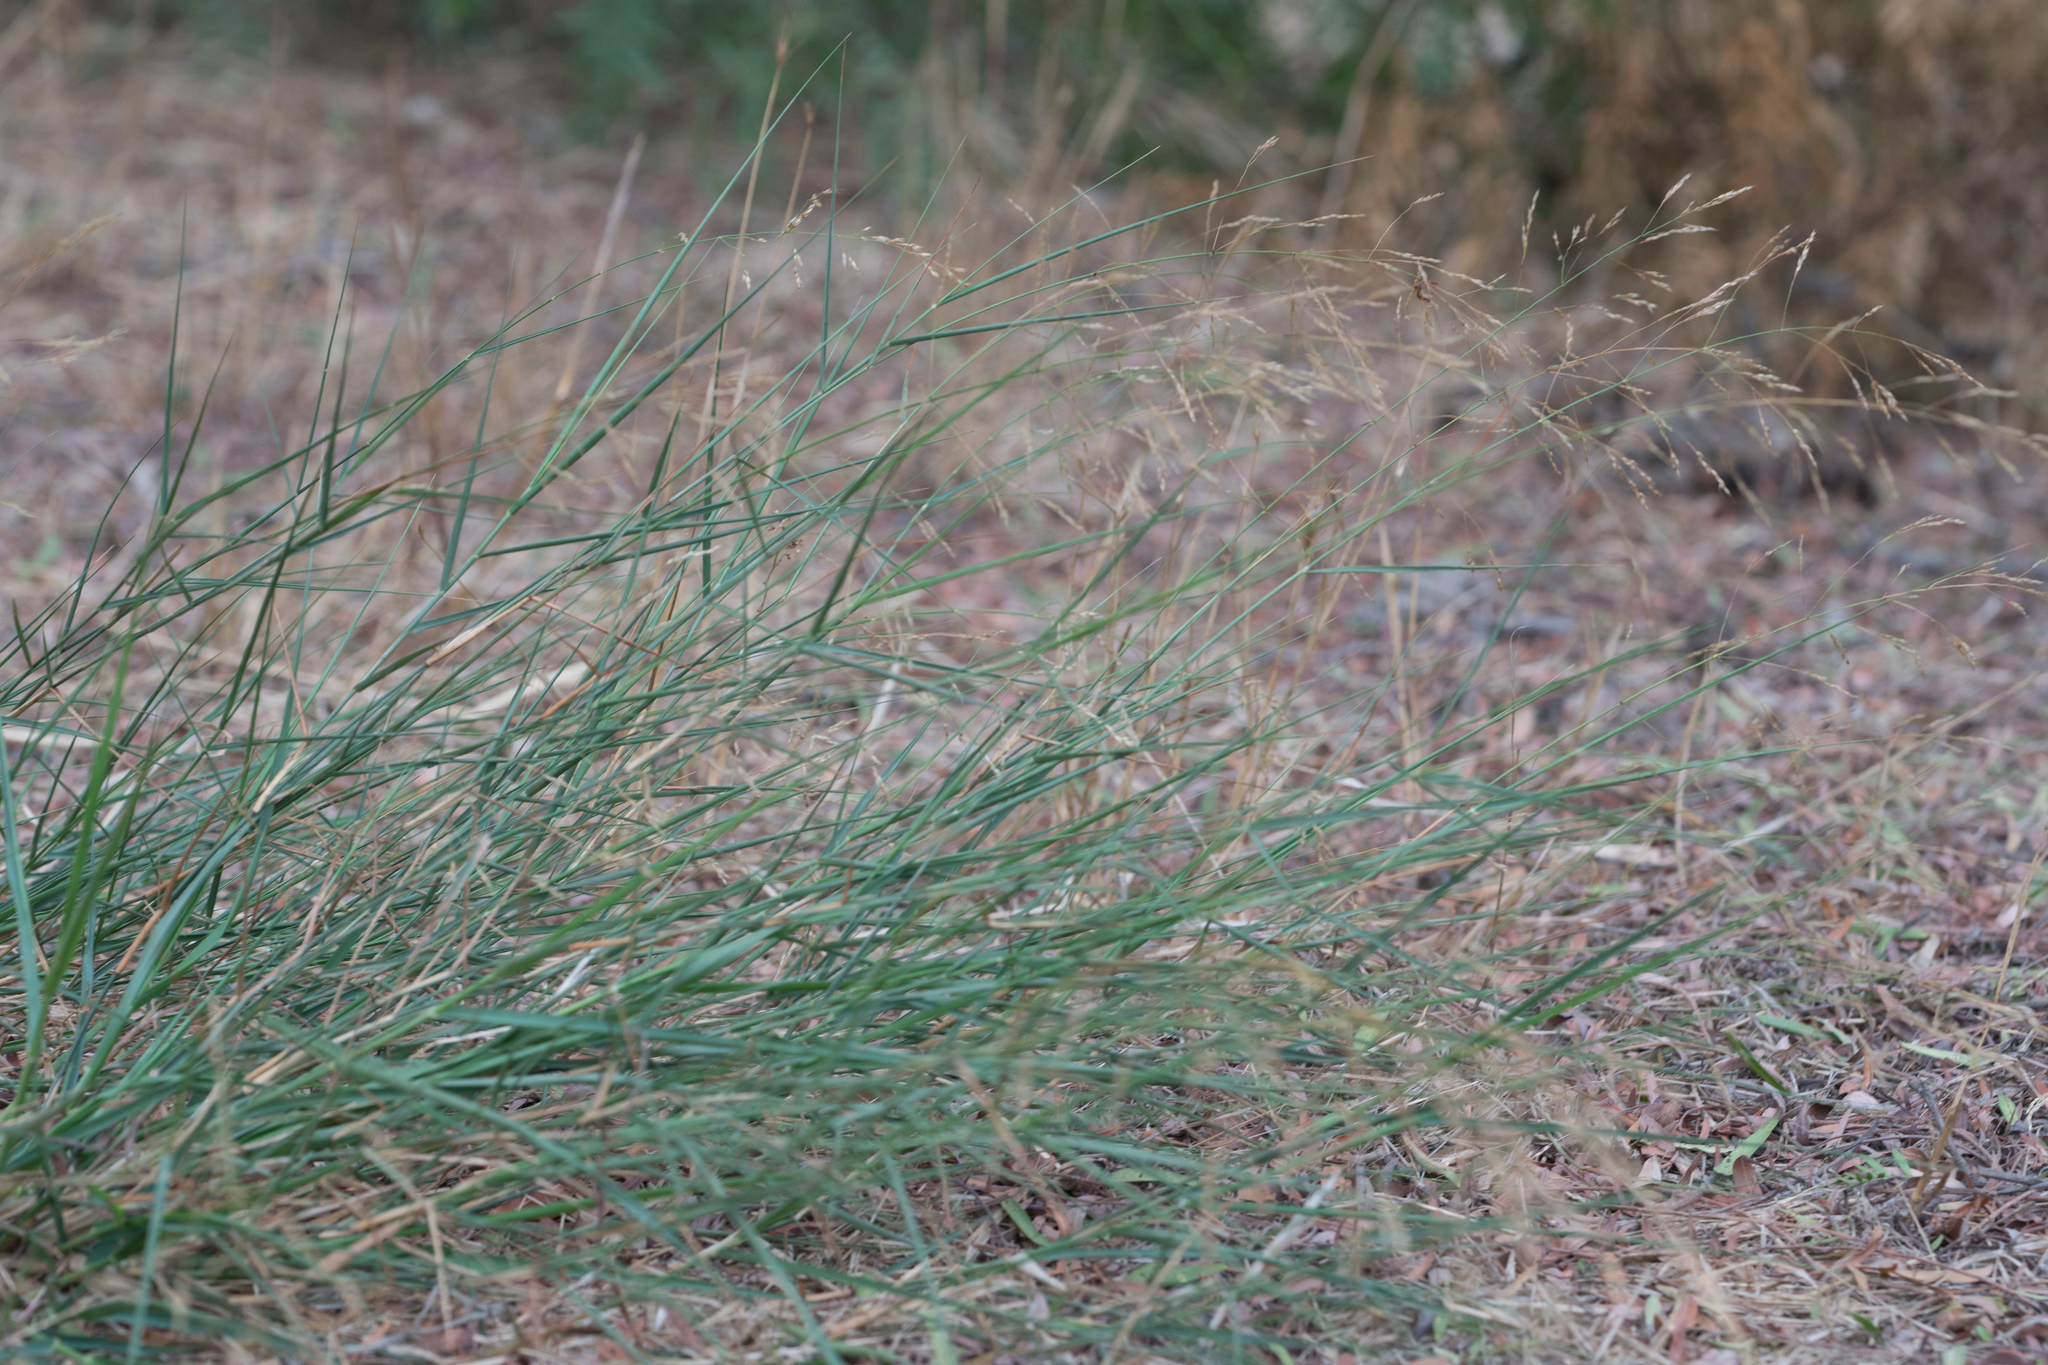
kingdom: Plantae
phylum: Tracheophyta
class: Liliopsida
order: Poales
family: Poaceae
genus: Oloptum
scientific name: Oloptum miliaceum
